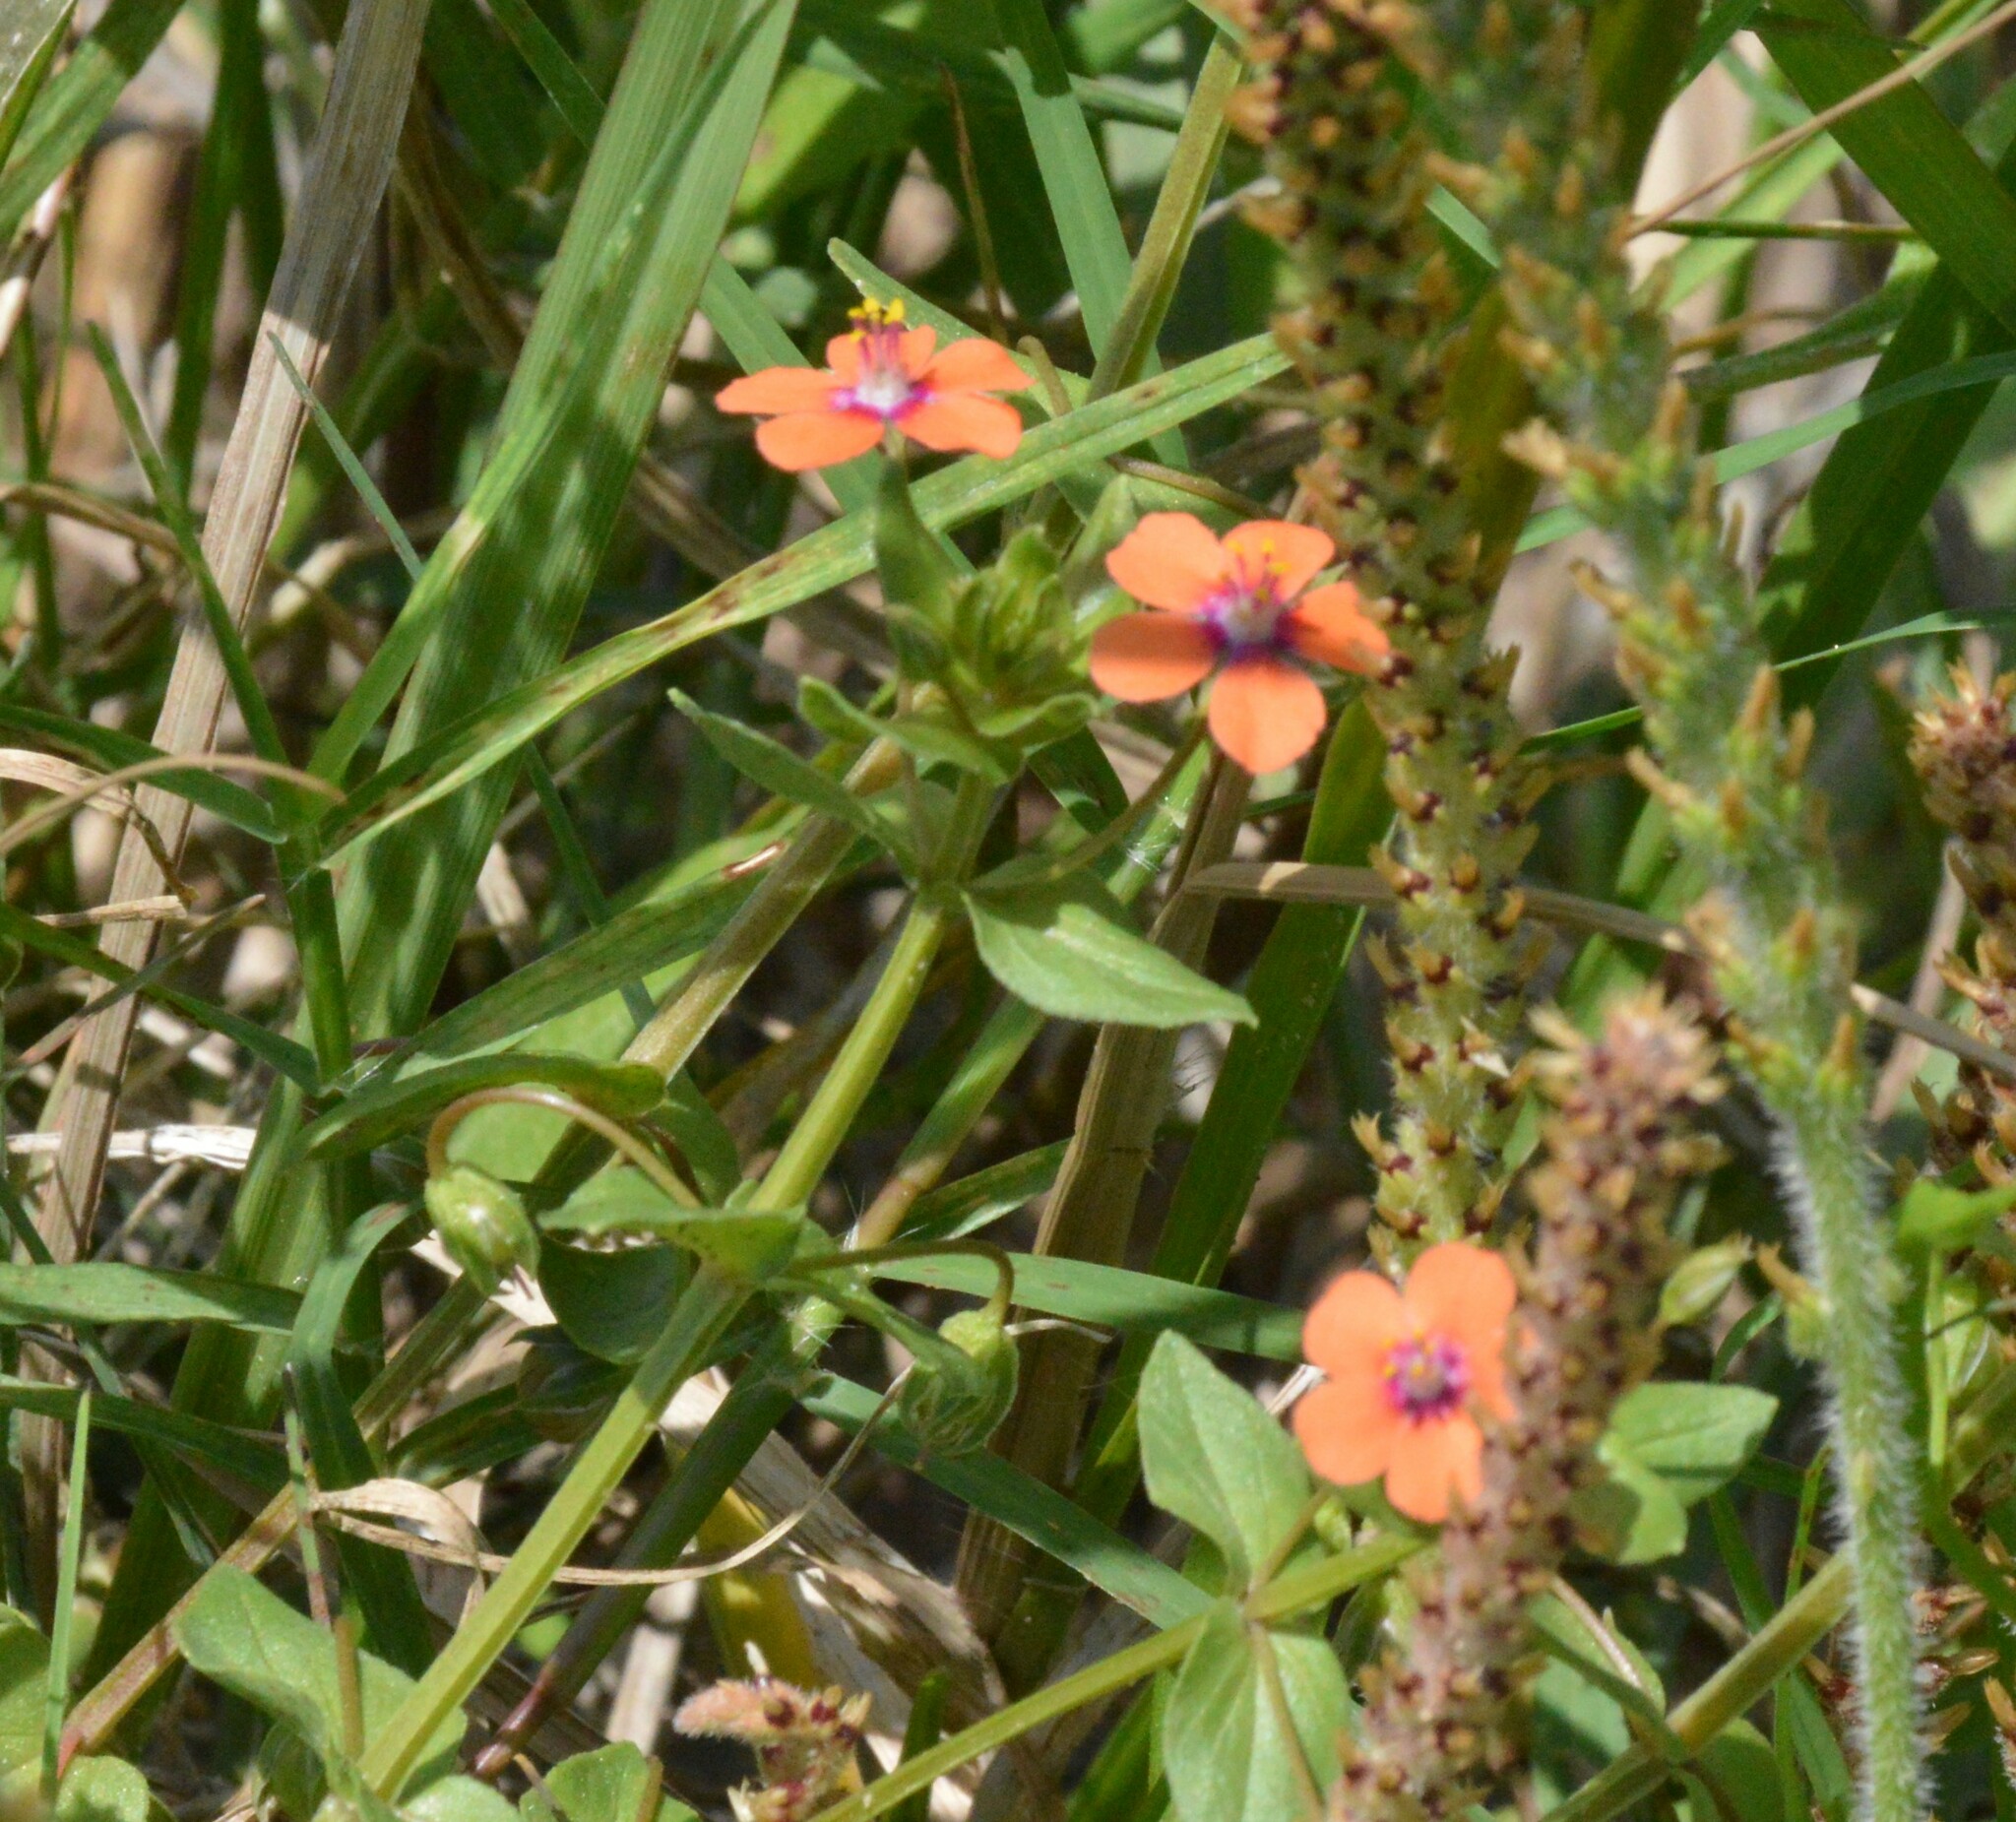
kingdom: Plantae
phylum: Tracheophyta
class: Magnoliopsida
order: Ericales
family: Primulaceae
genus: Lysimachia
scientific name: Lysimachia arvensis
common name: Scarlet pimpernel
